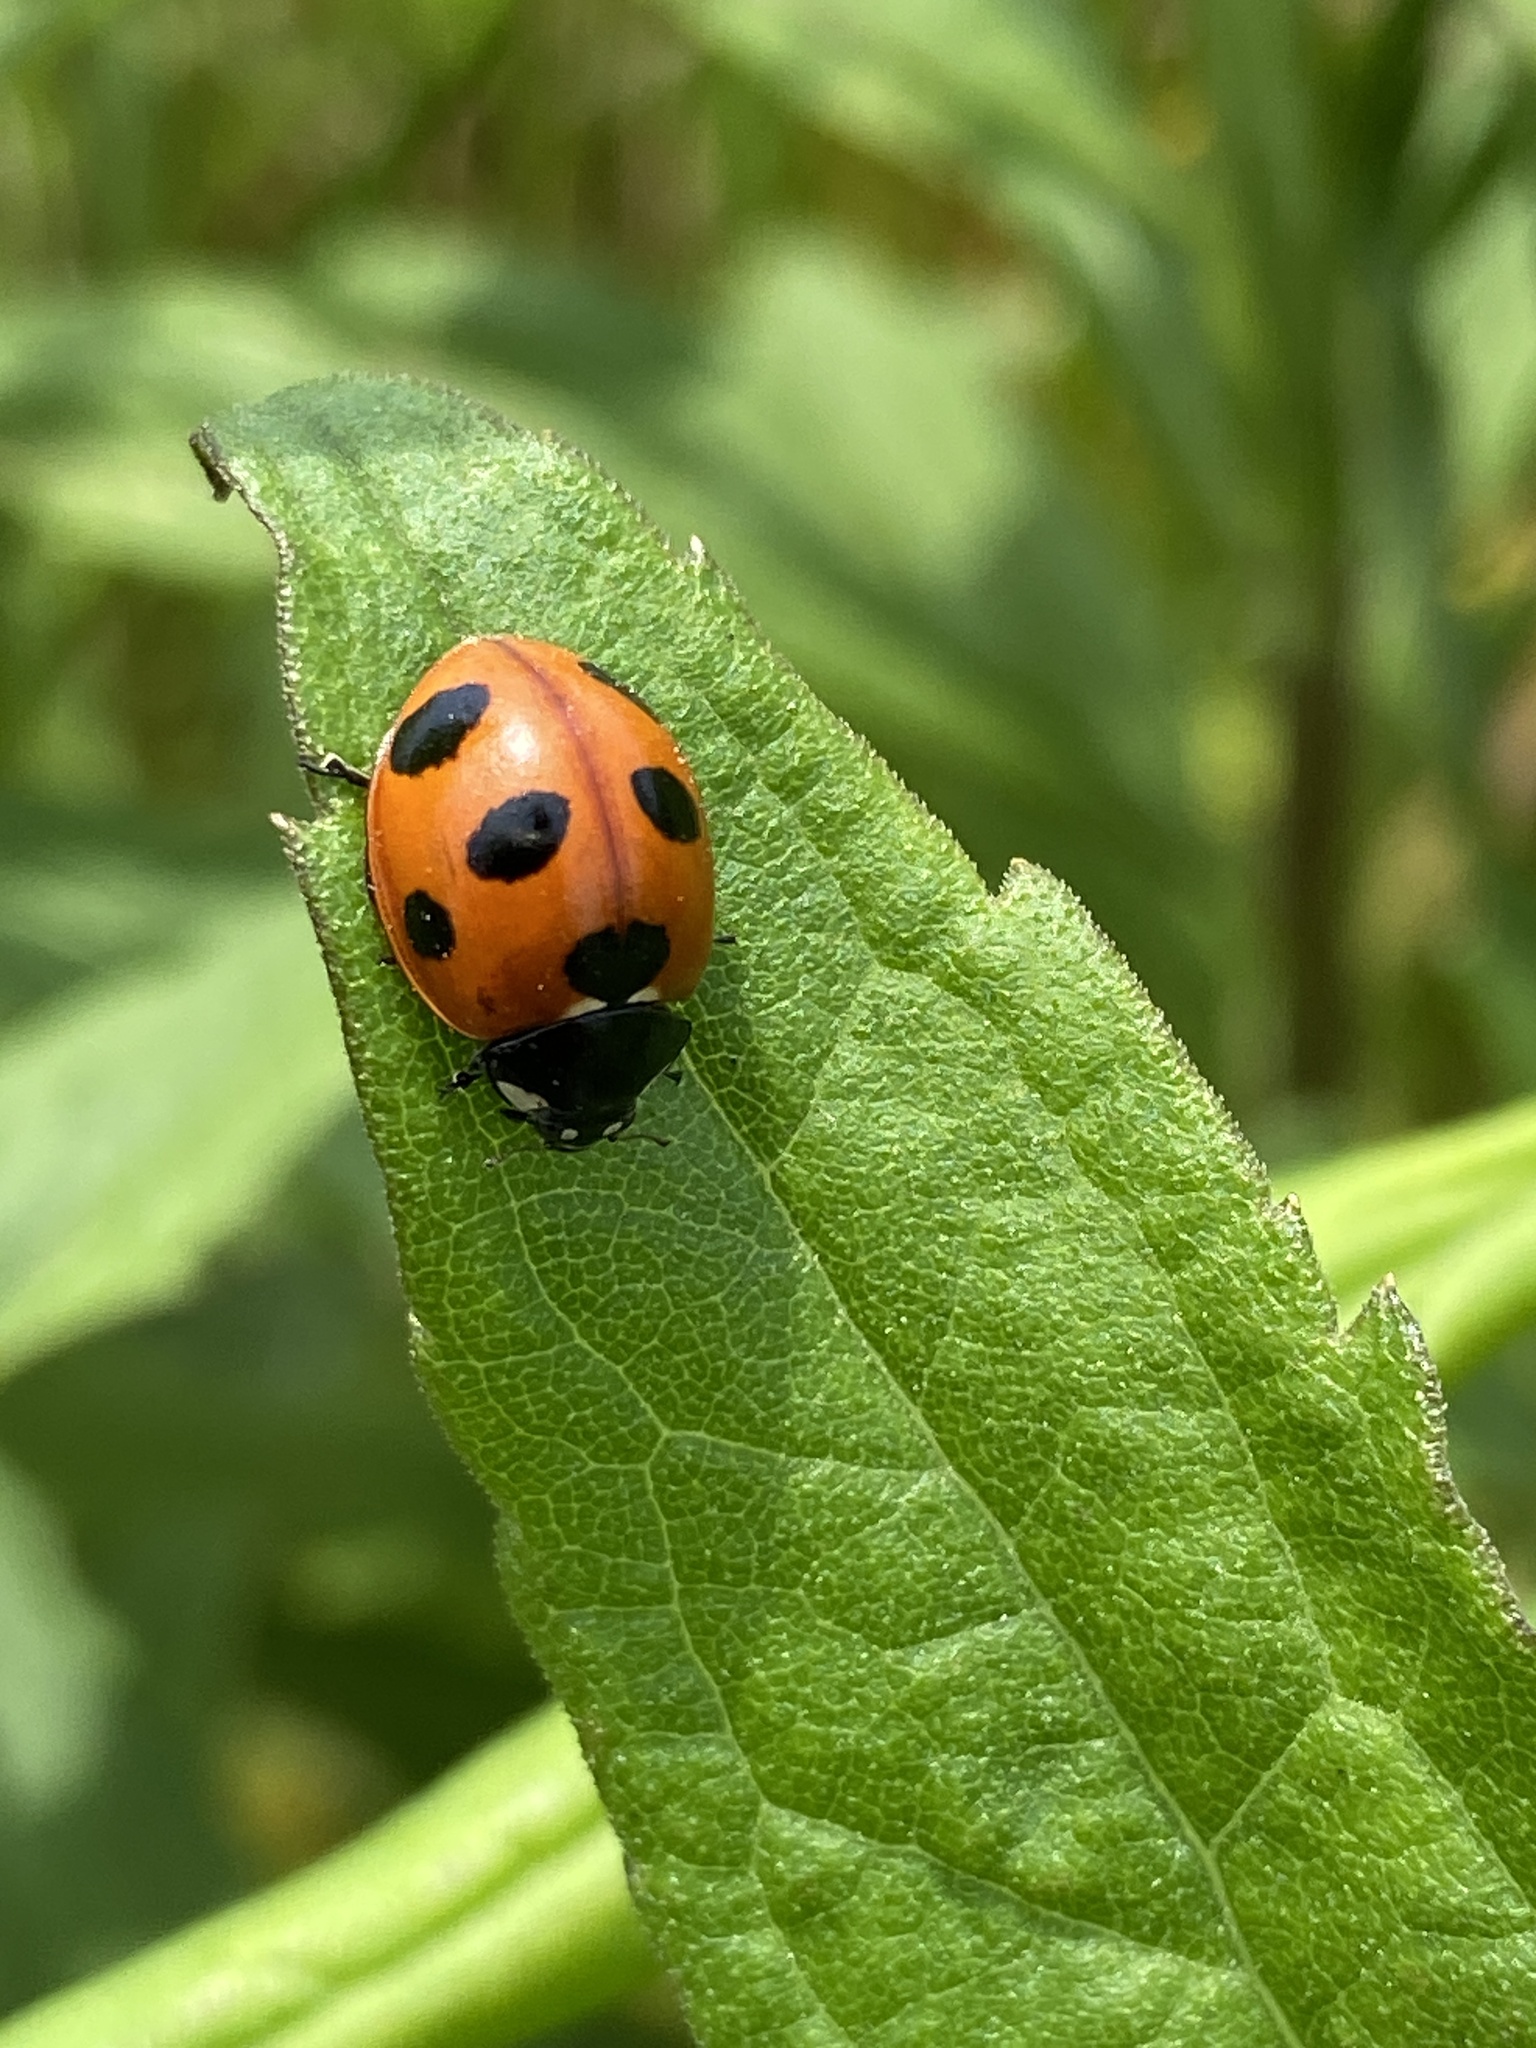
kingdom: Animalia
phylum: Arthropoda
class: Insecta
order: Coleoptera
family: Coccinellidae
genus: Coccinella
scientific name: Coccinella septempunctata
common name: Sevenspotted lady beetle
